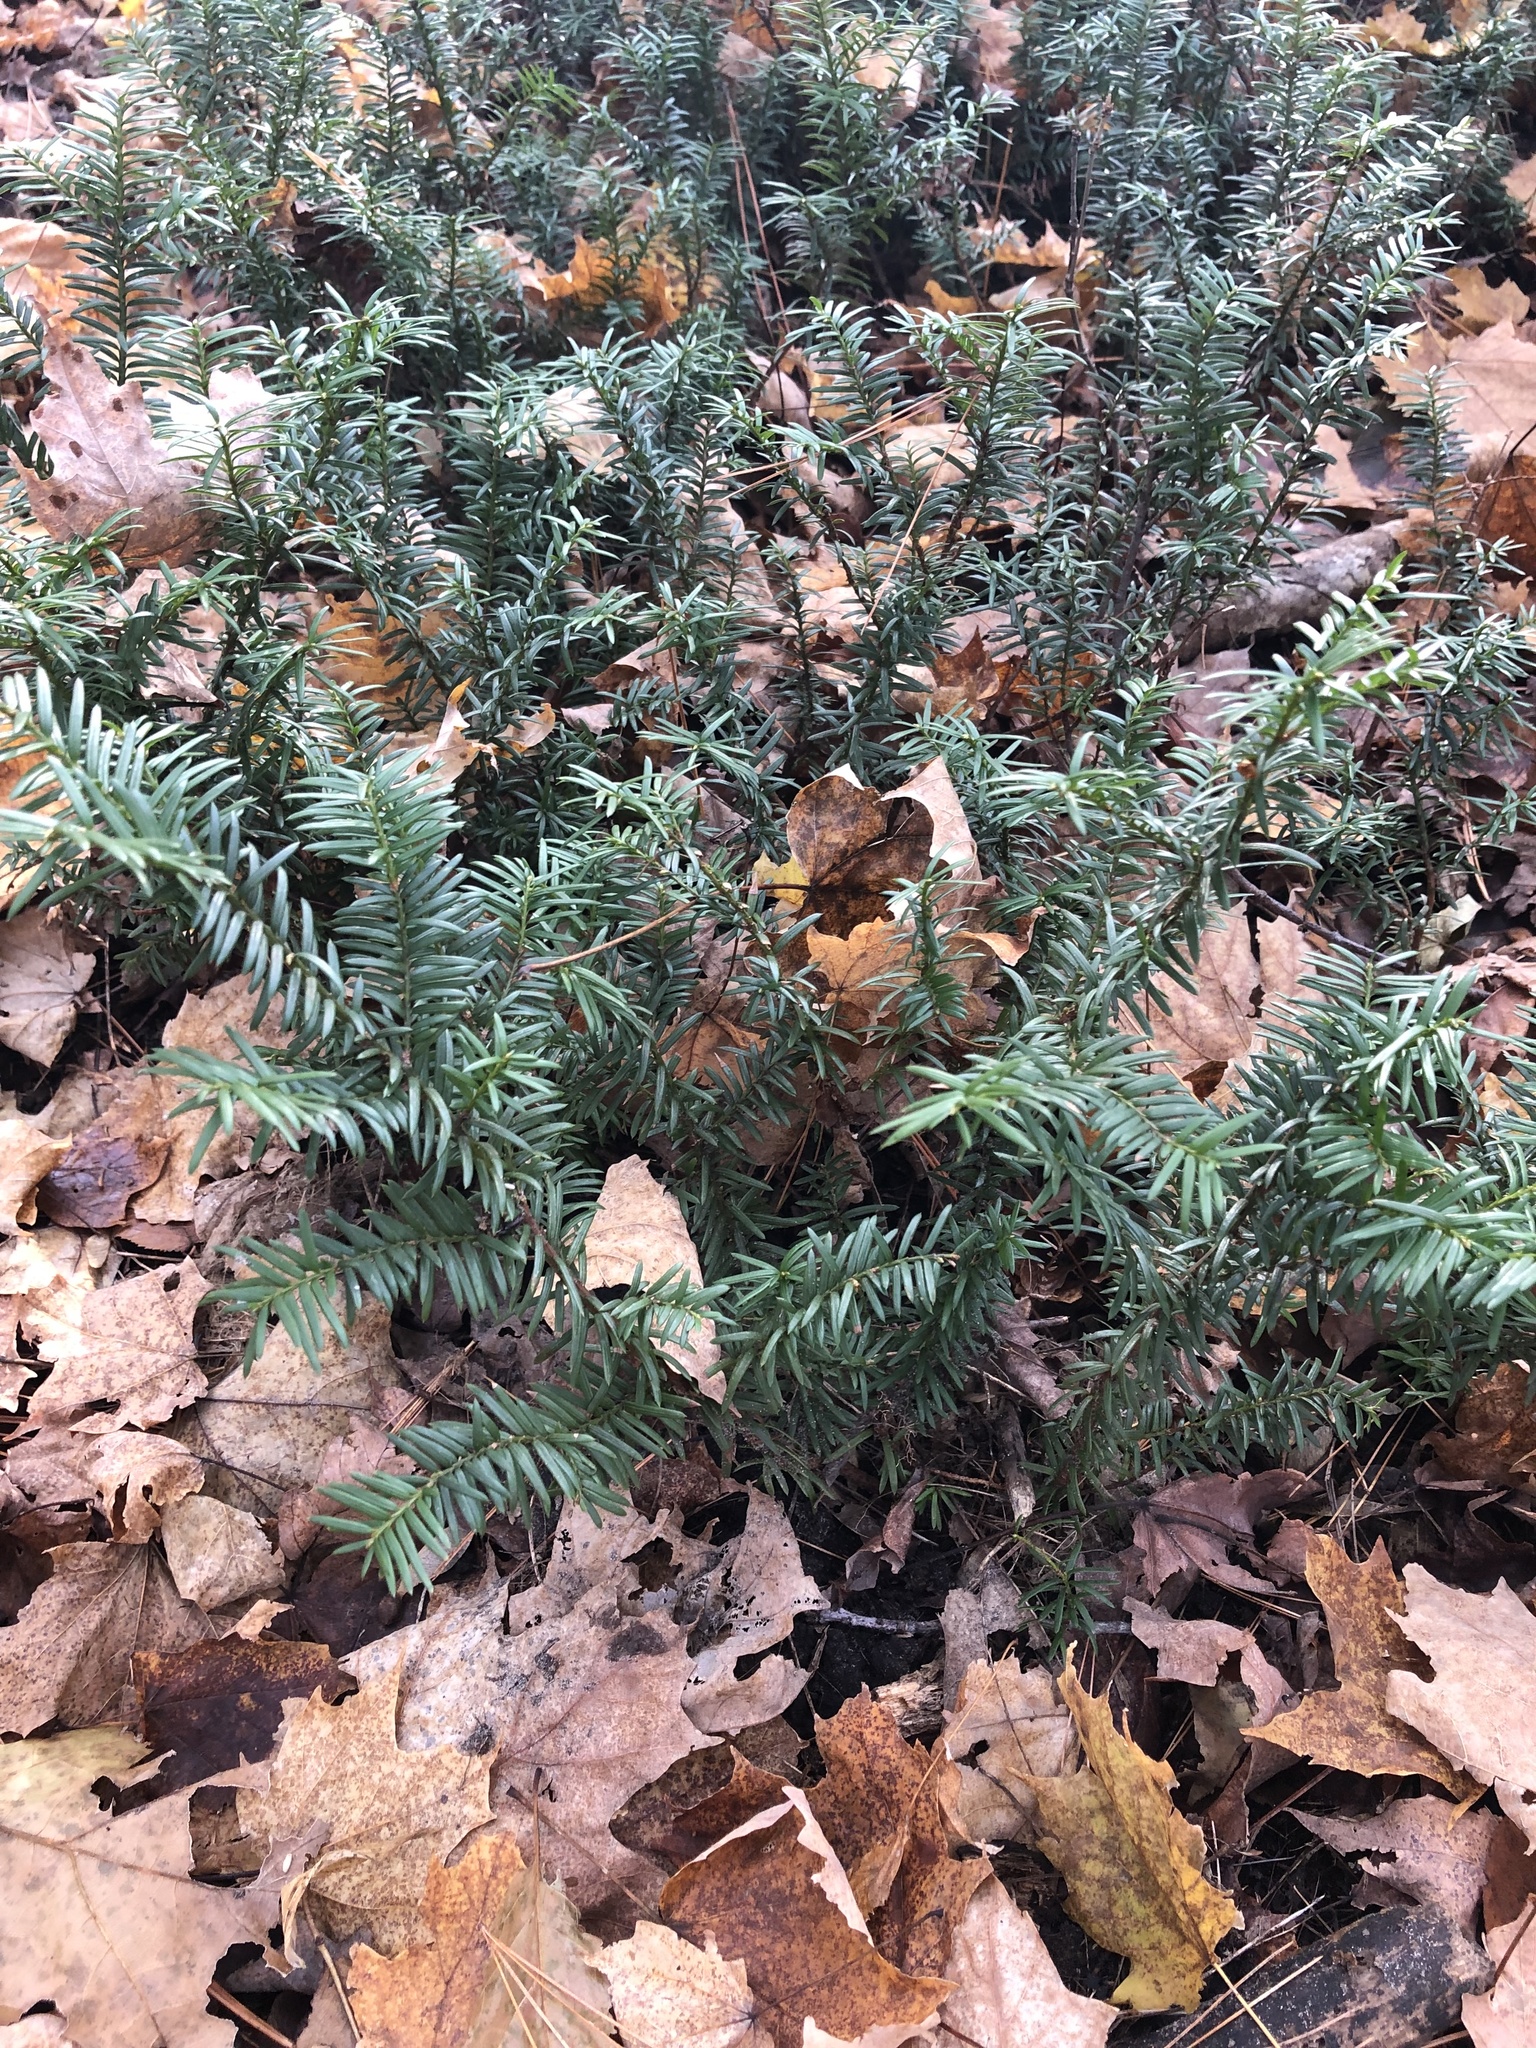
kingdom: Plantae
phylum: Tracheophyta
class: Pinopsida
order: Pinales
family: Taxaceae
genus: Taxus
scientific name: Taxus canadensis
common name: American yew
